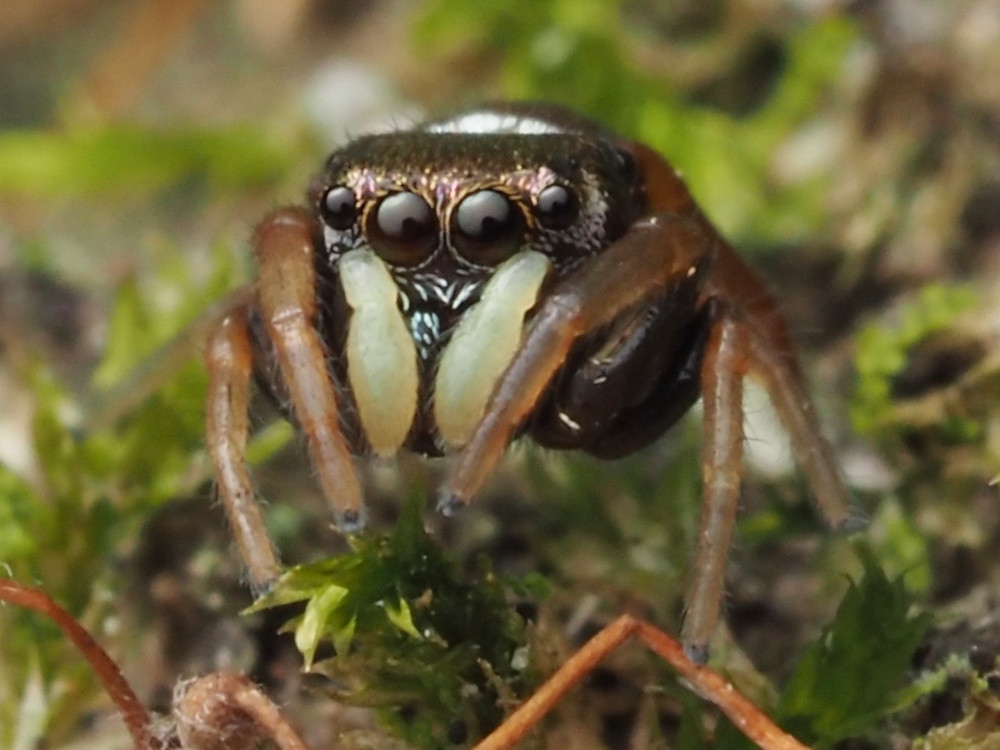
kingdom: Animalia
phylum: Arthropoda
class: Arachnida
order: Araneae
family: Salticidae
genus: Zygoballus
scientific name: Zygoballus sexpunctatus
